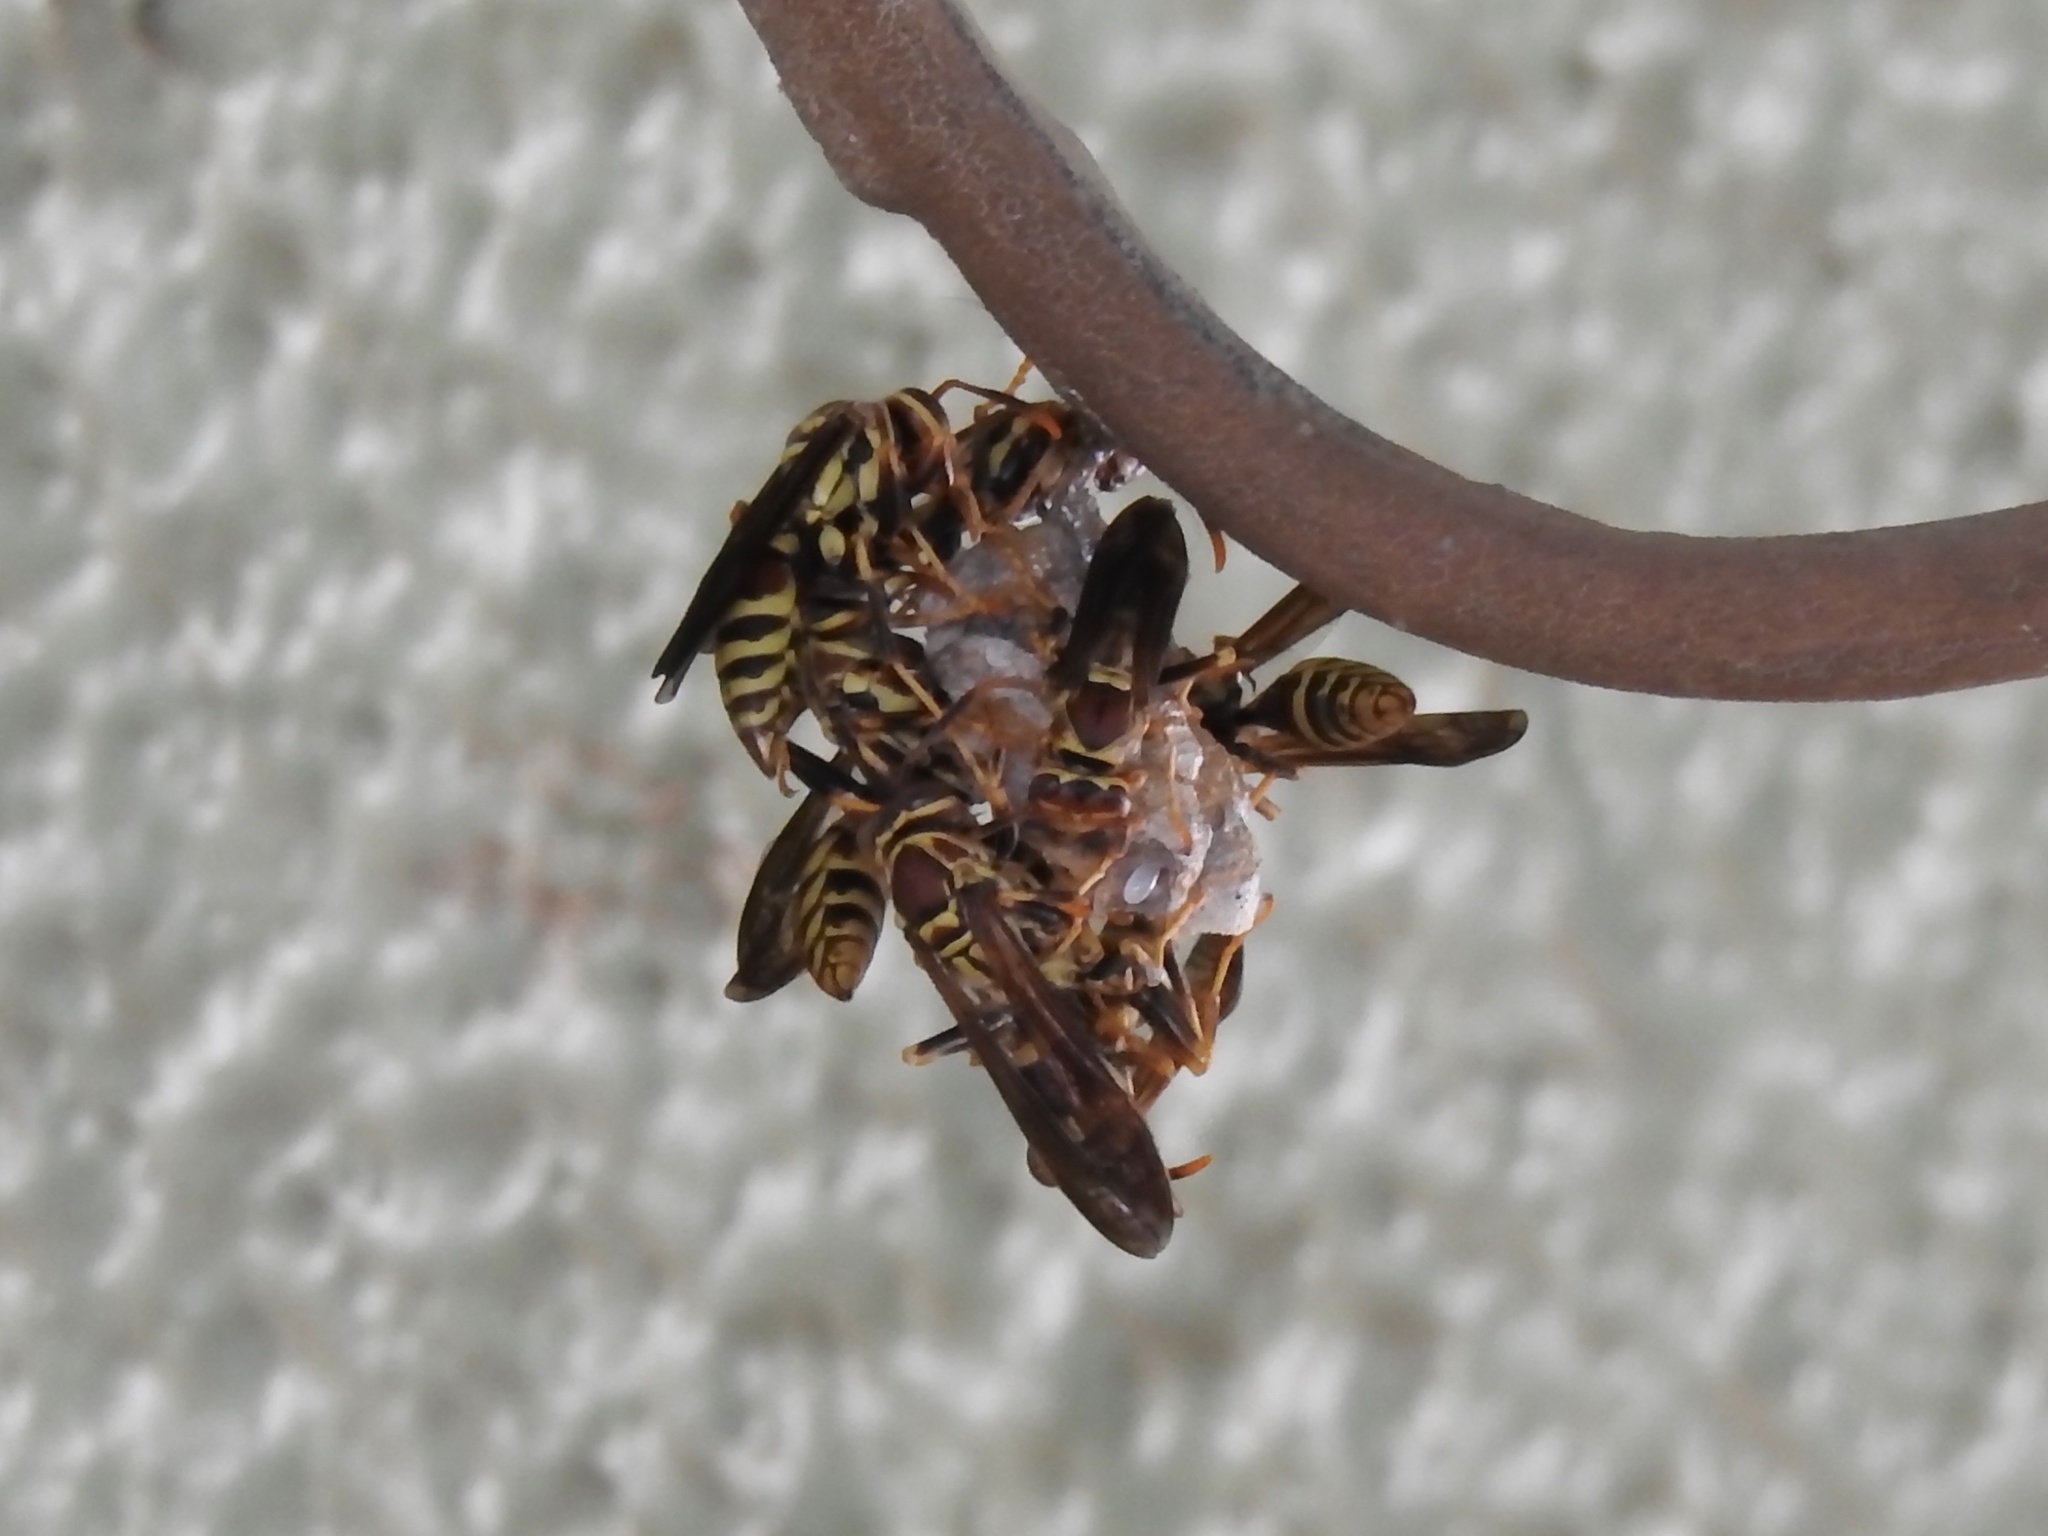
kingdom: Animalia
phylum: Arthropoda
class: Insecta
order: Hymenoptera
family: Eumenidae
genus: Polistes
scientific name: Polistes exclamans
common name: Paper wasp
